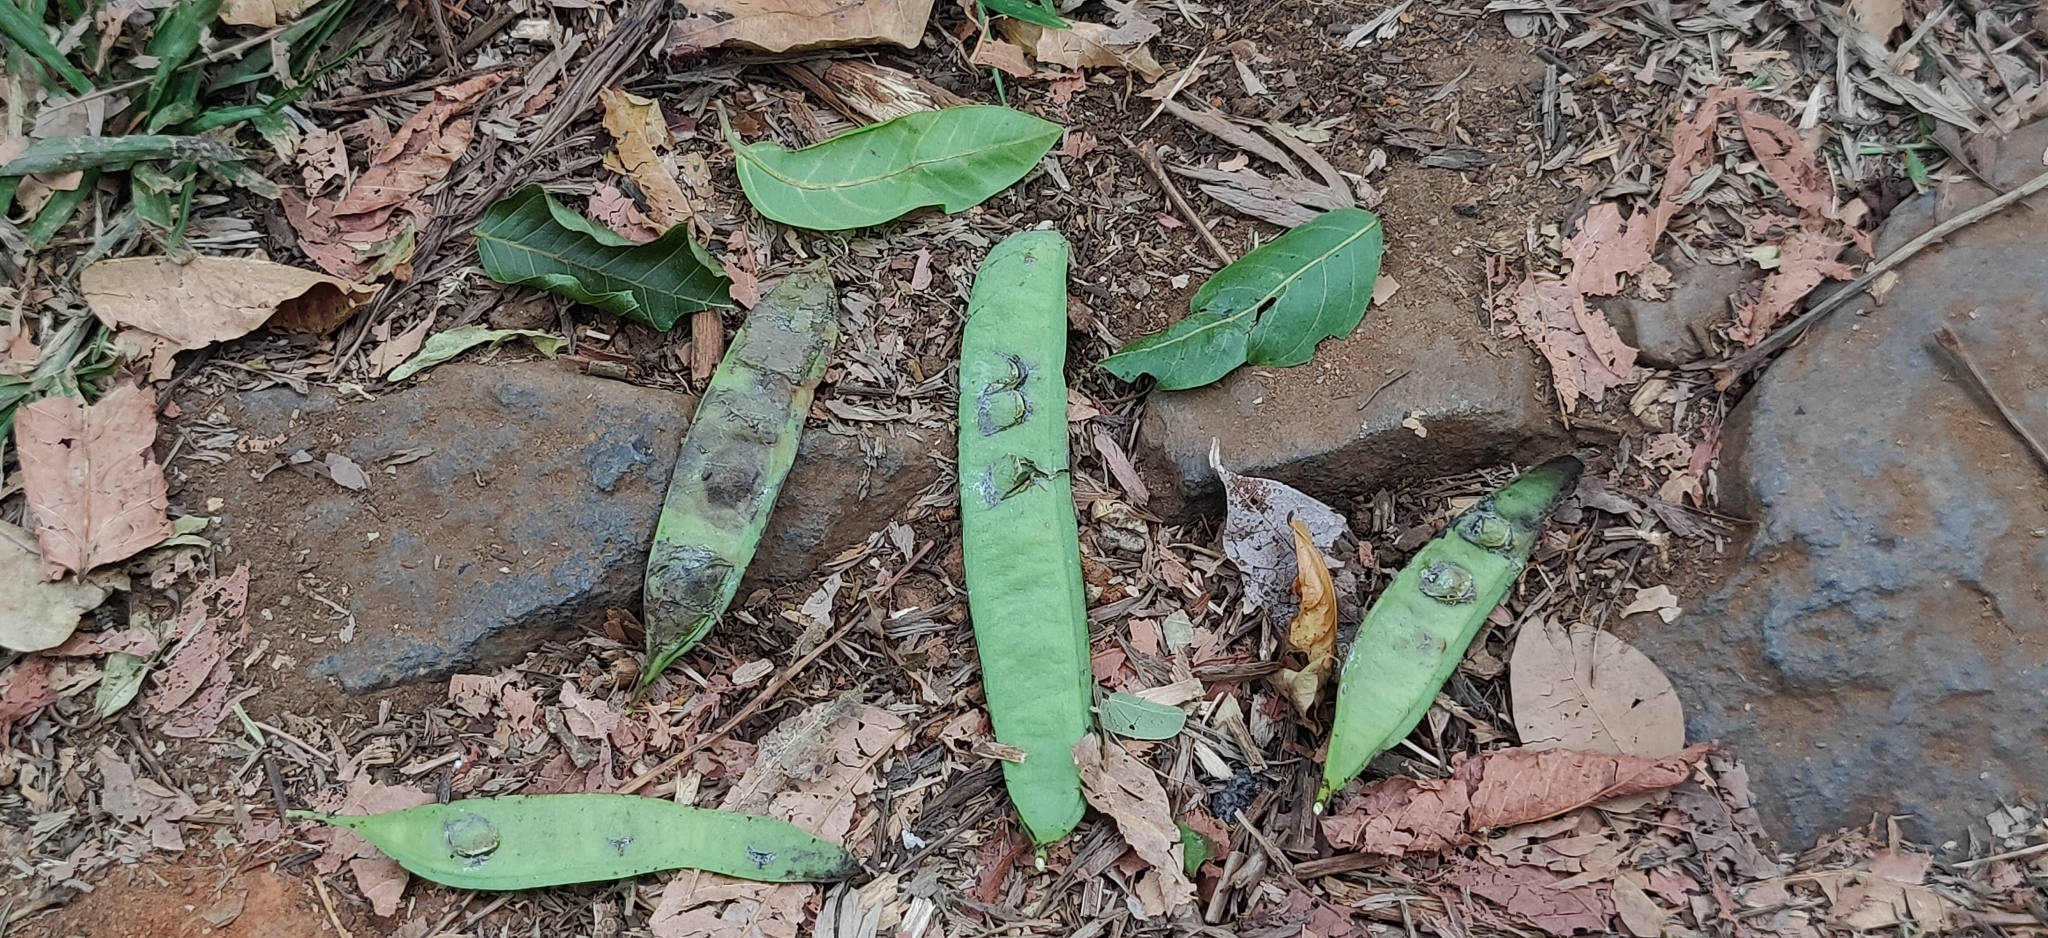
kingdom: Plantae
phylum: Tracheophyta
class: Magnoliopsida
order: Fabales
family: Fabaceae
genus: Acrocarpus
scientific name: Acrocarpus fraxinifolius
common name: Kenya coffeeshade
